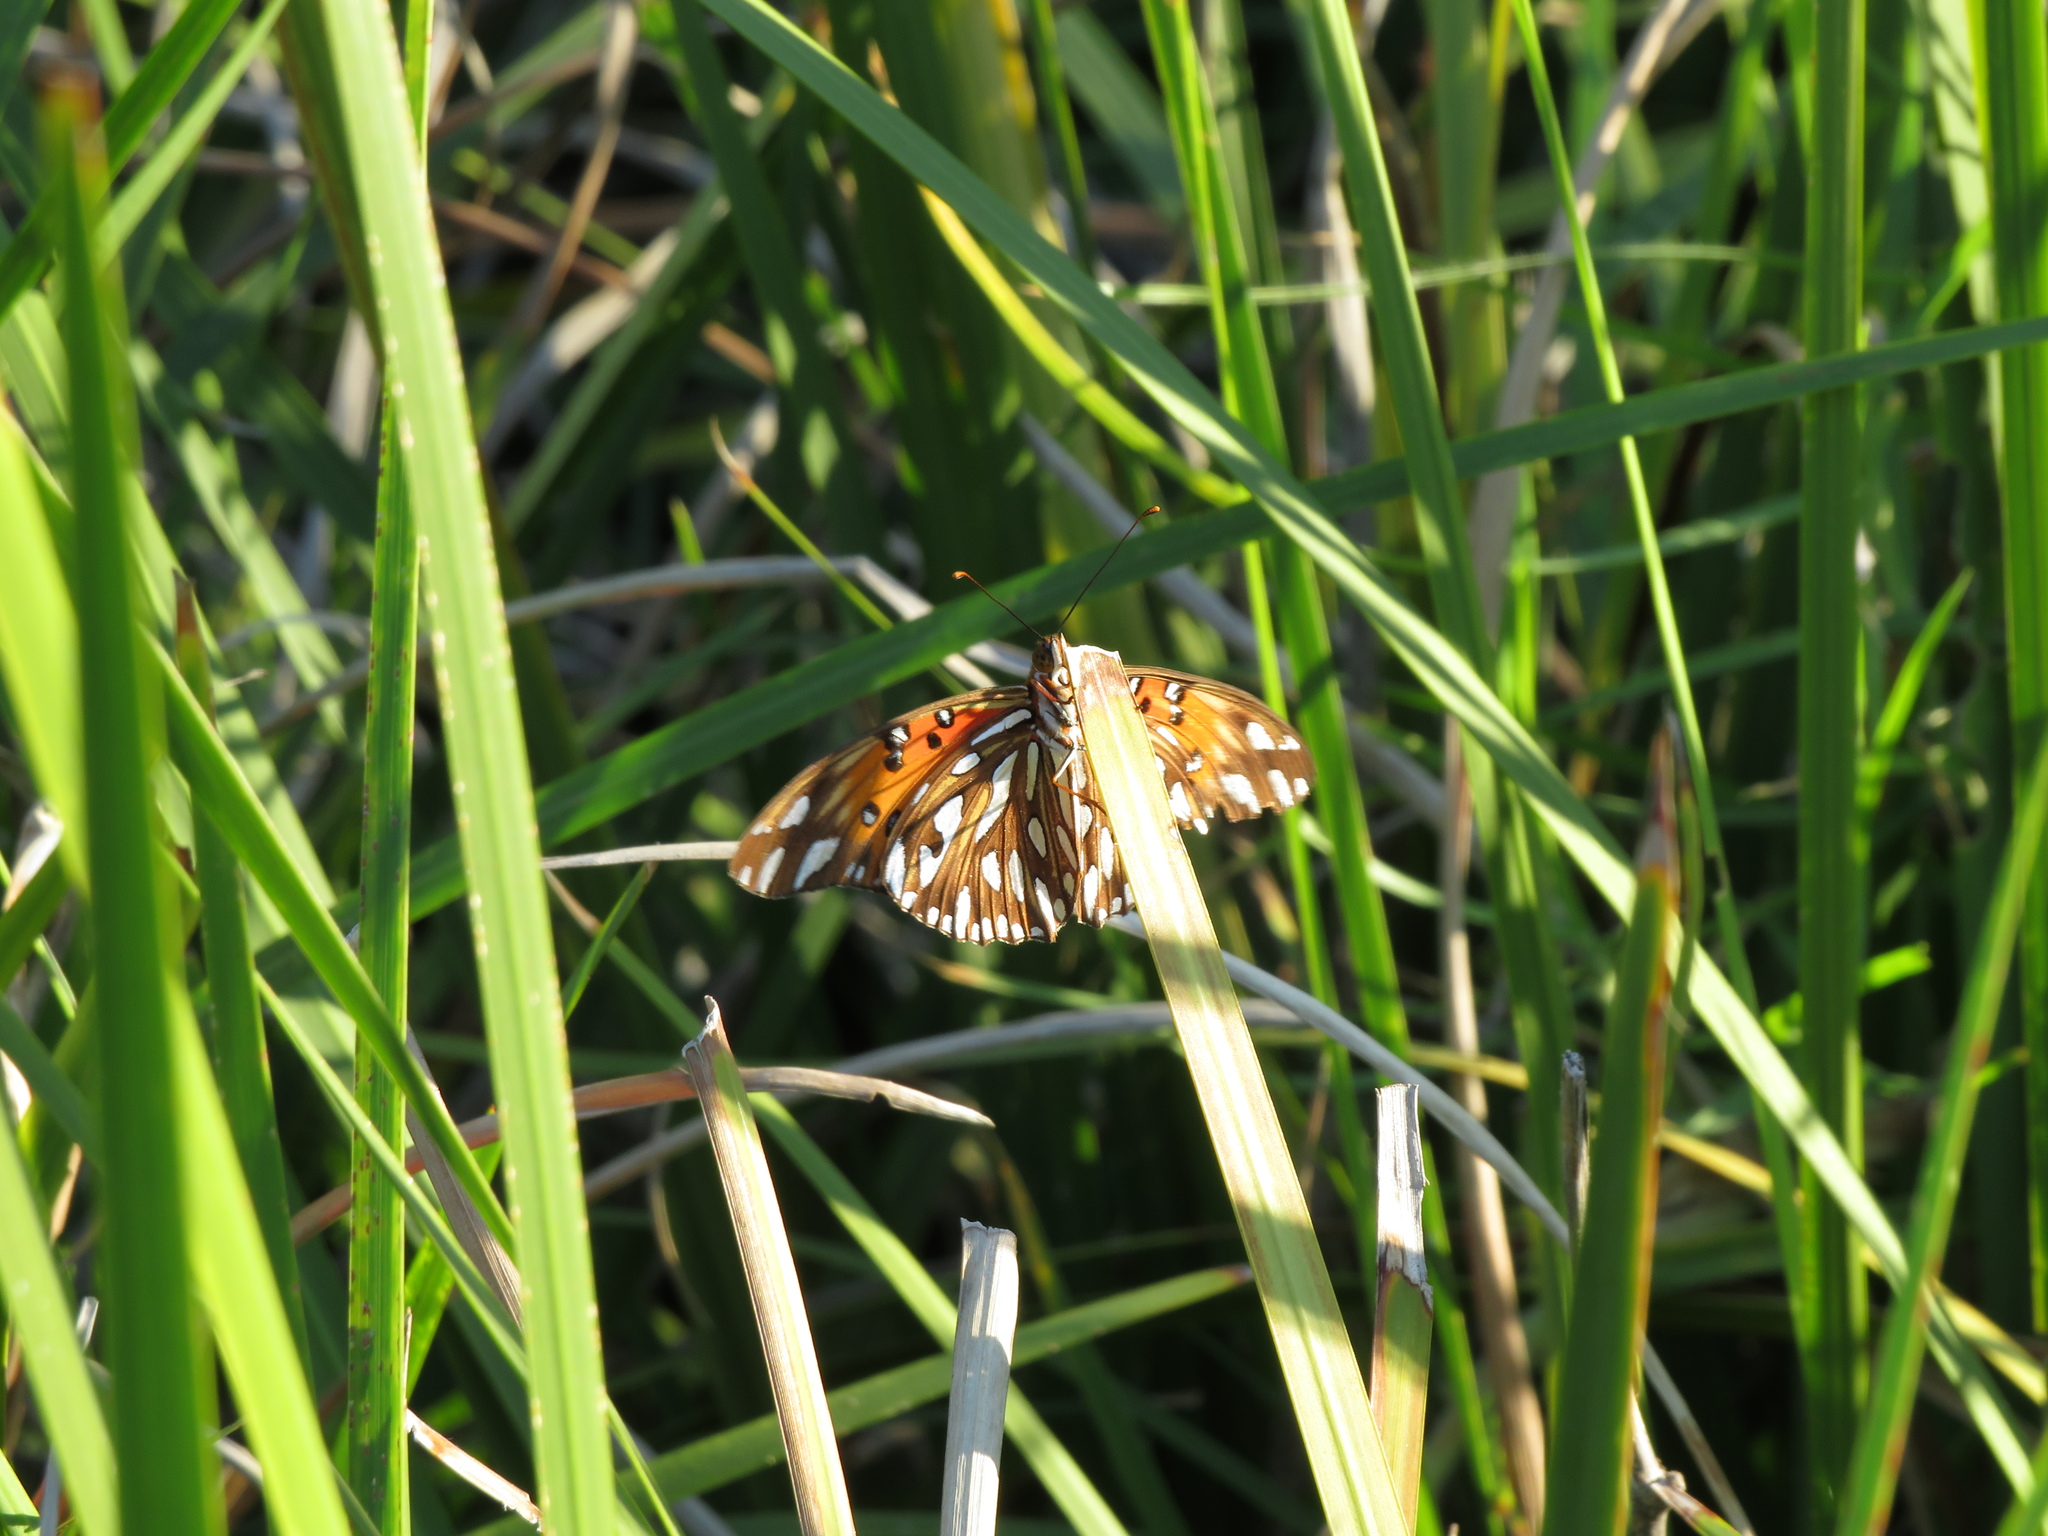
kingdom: Animalia
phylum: Arthropoda
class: Insecta
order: Lepidoptera
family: Nymphalidae
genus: Dione
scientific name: Dione vanillae
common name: Gulf fritillary
